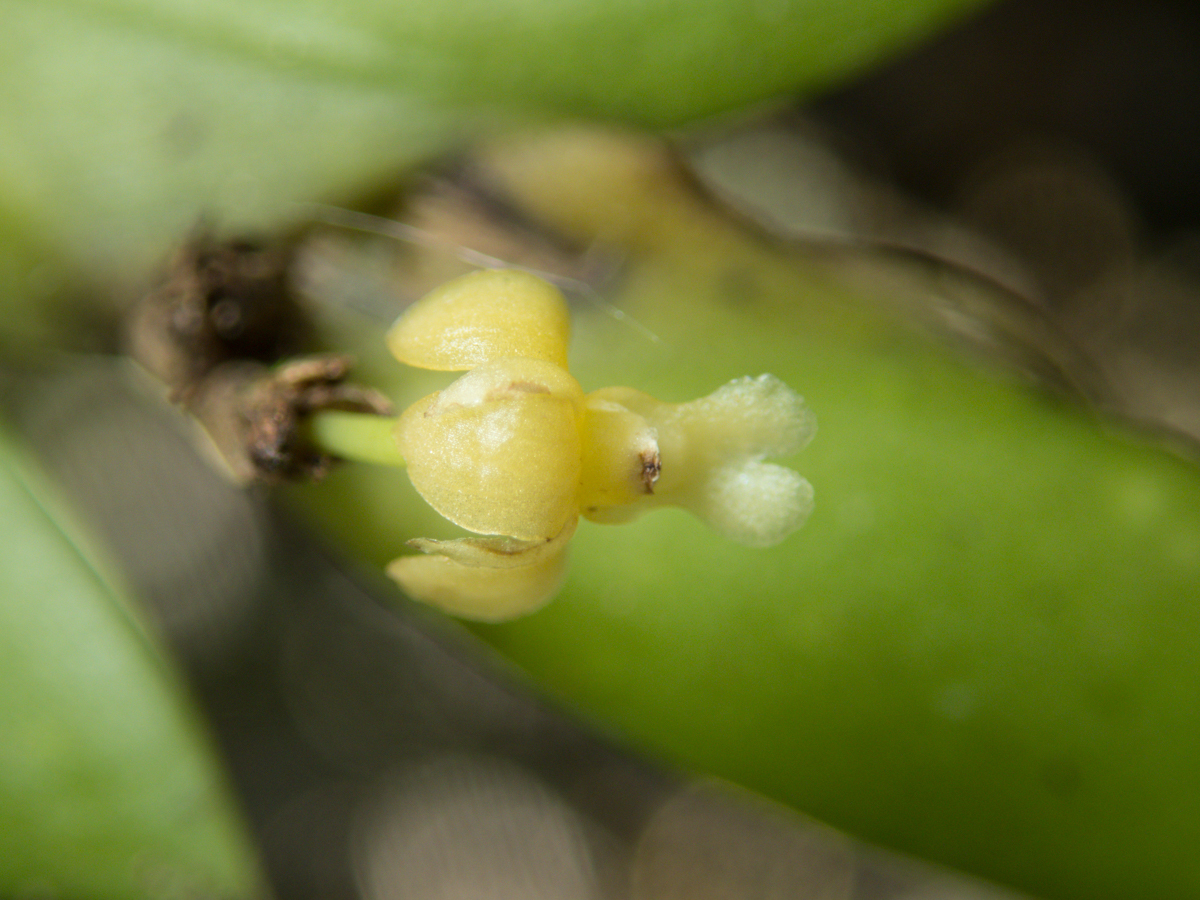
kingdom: Plantae
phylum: Tracheophyta
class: Liliopsida
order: Asparagales
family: Orchidaceae
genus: Dendrobium
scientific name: Dendrobium aloifolium
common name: Aloe-like dendrobium
